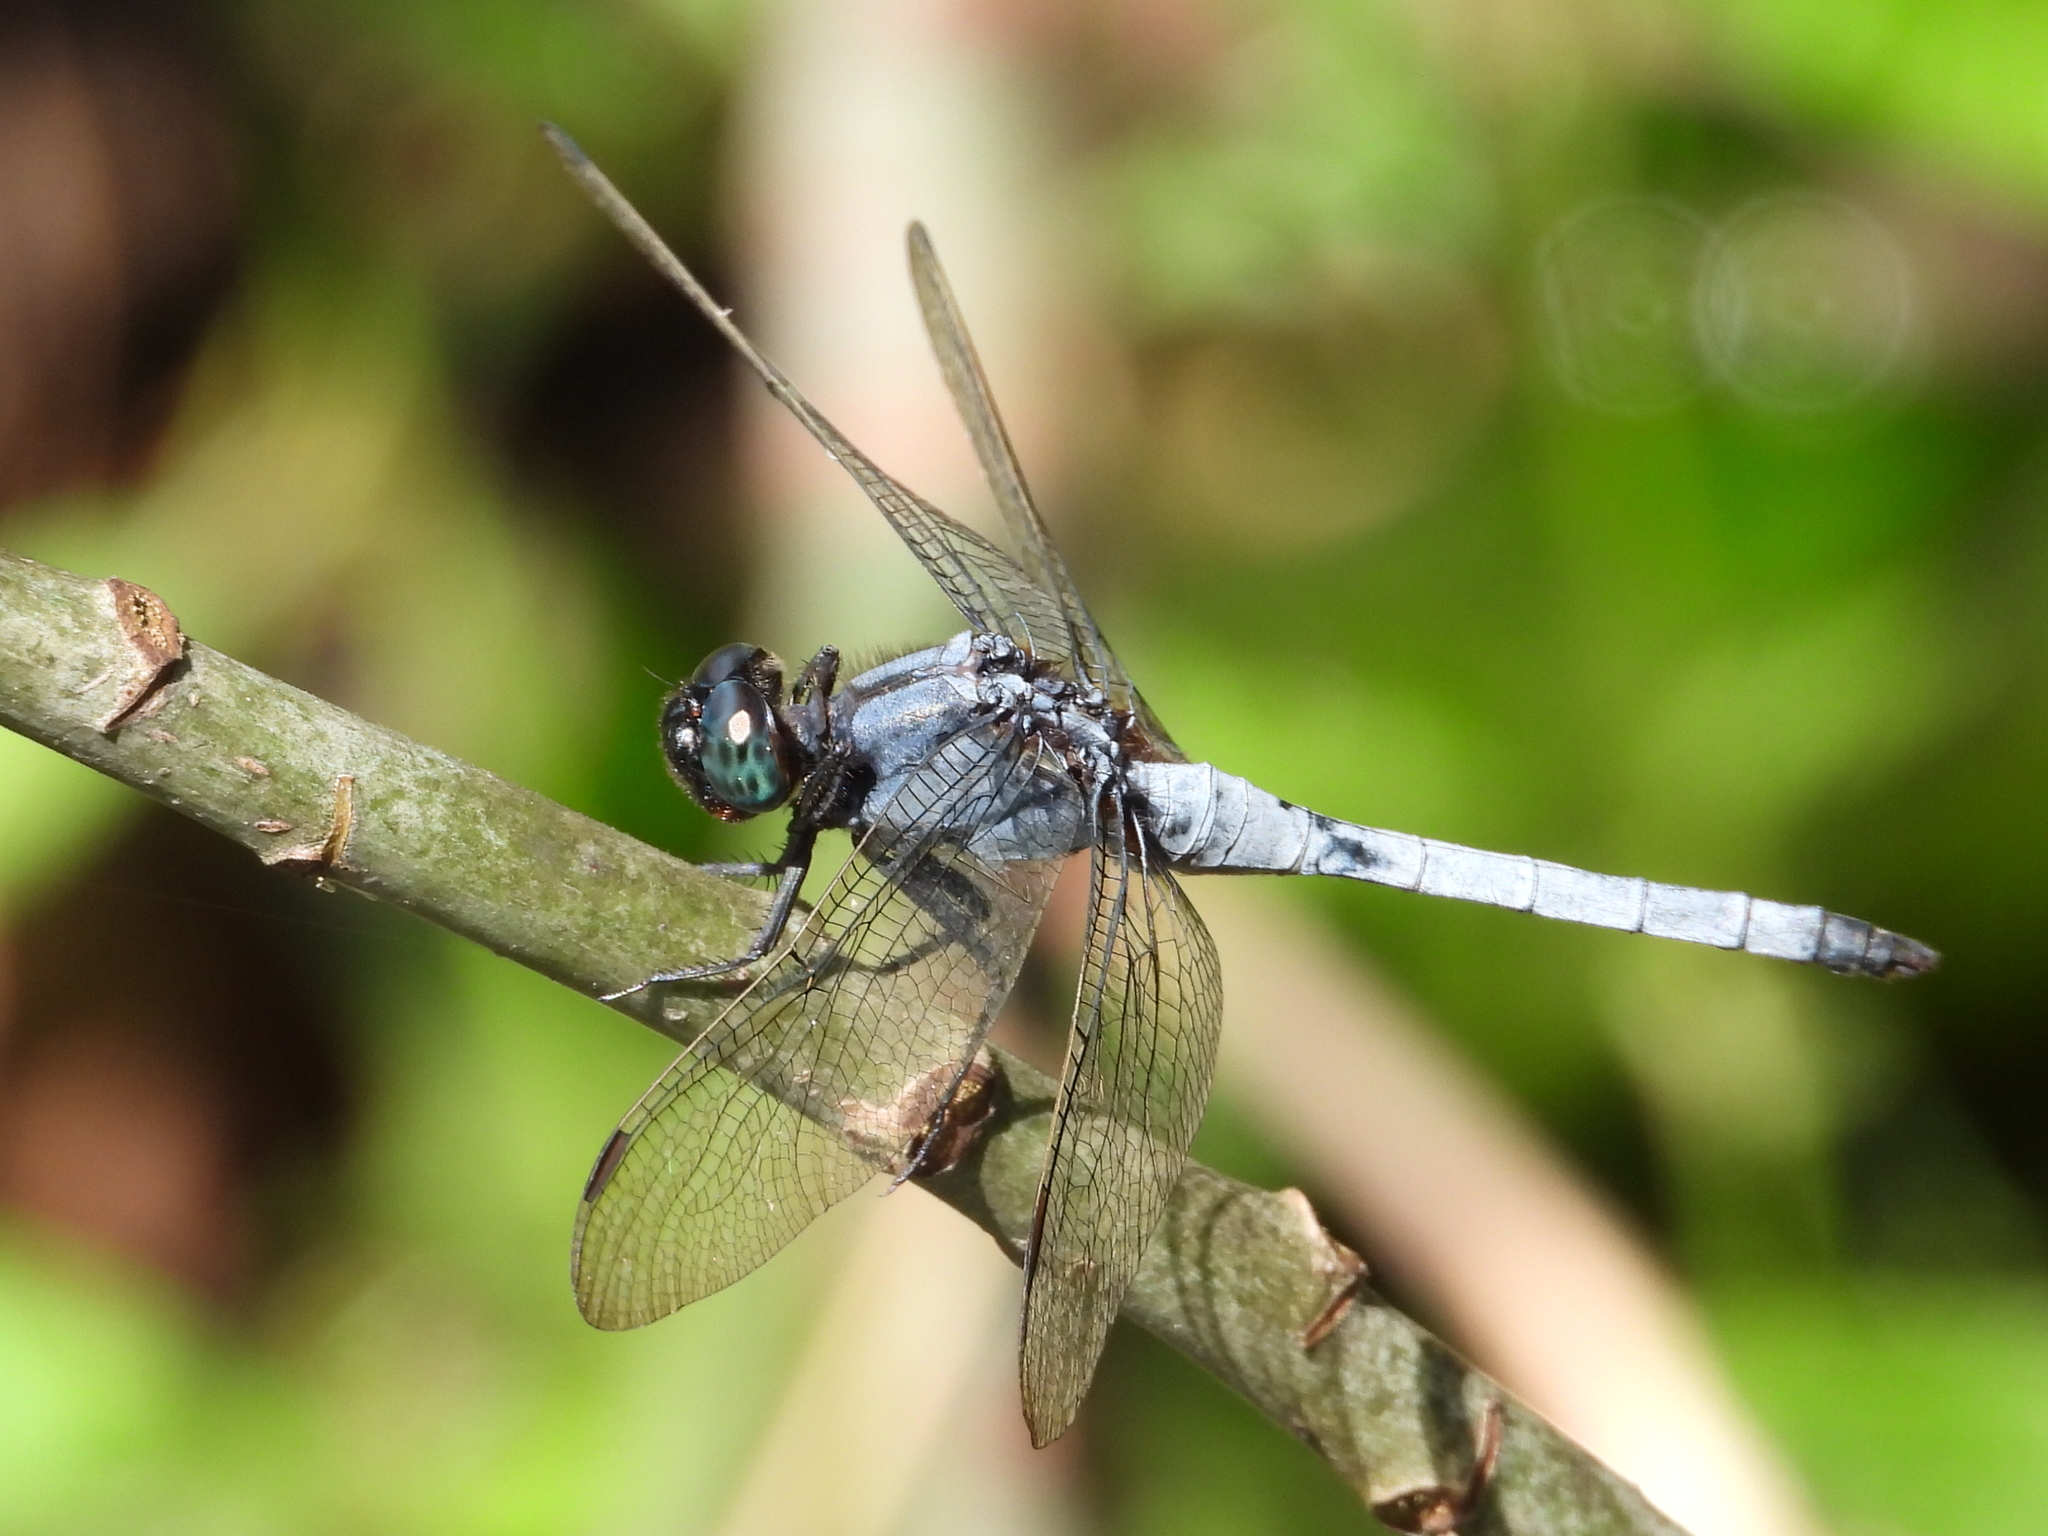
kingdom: Animalia
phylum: Arthropoda
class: Insecta
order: Odonata
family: Libellulidae
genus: Orthetrum
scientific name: Orthetrum glaucum
